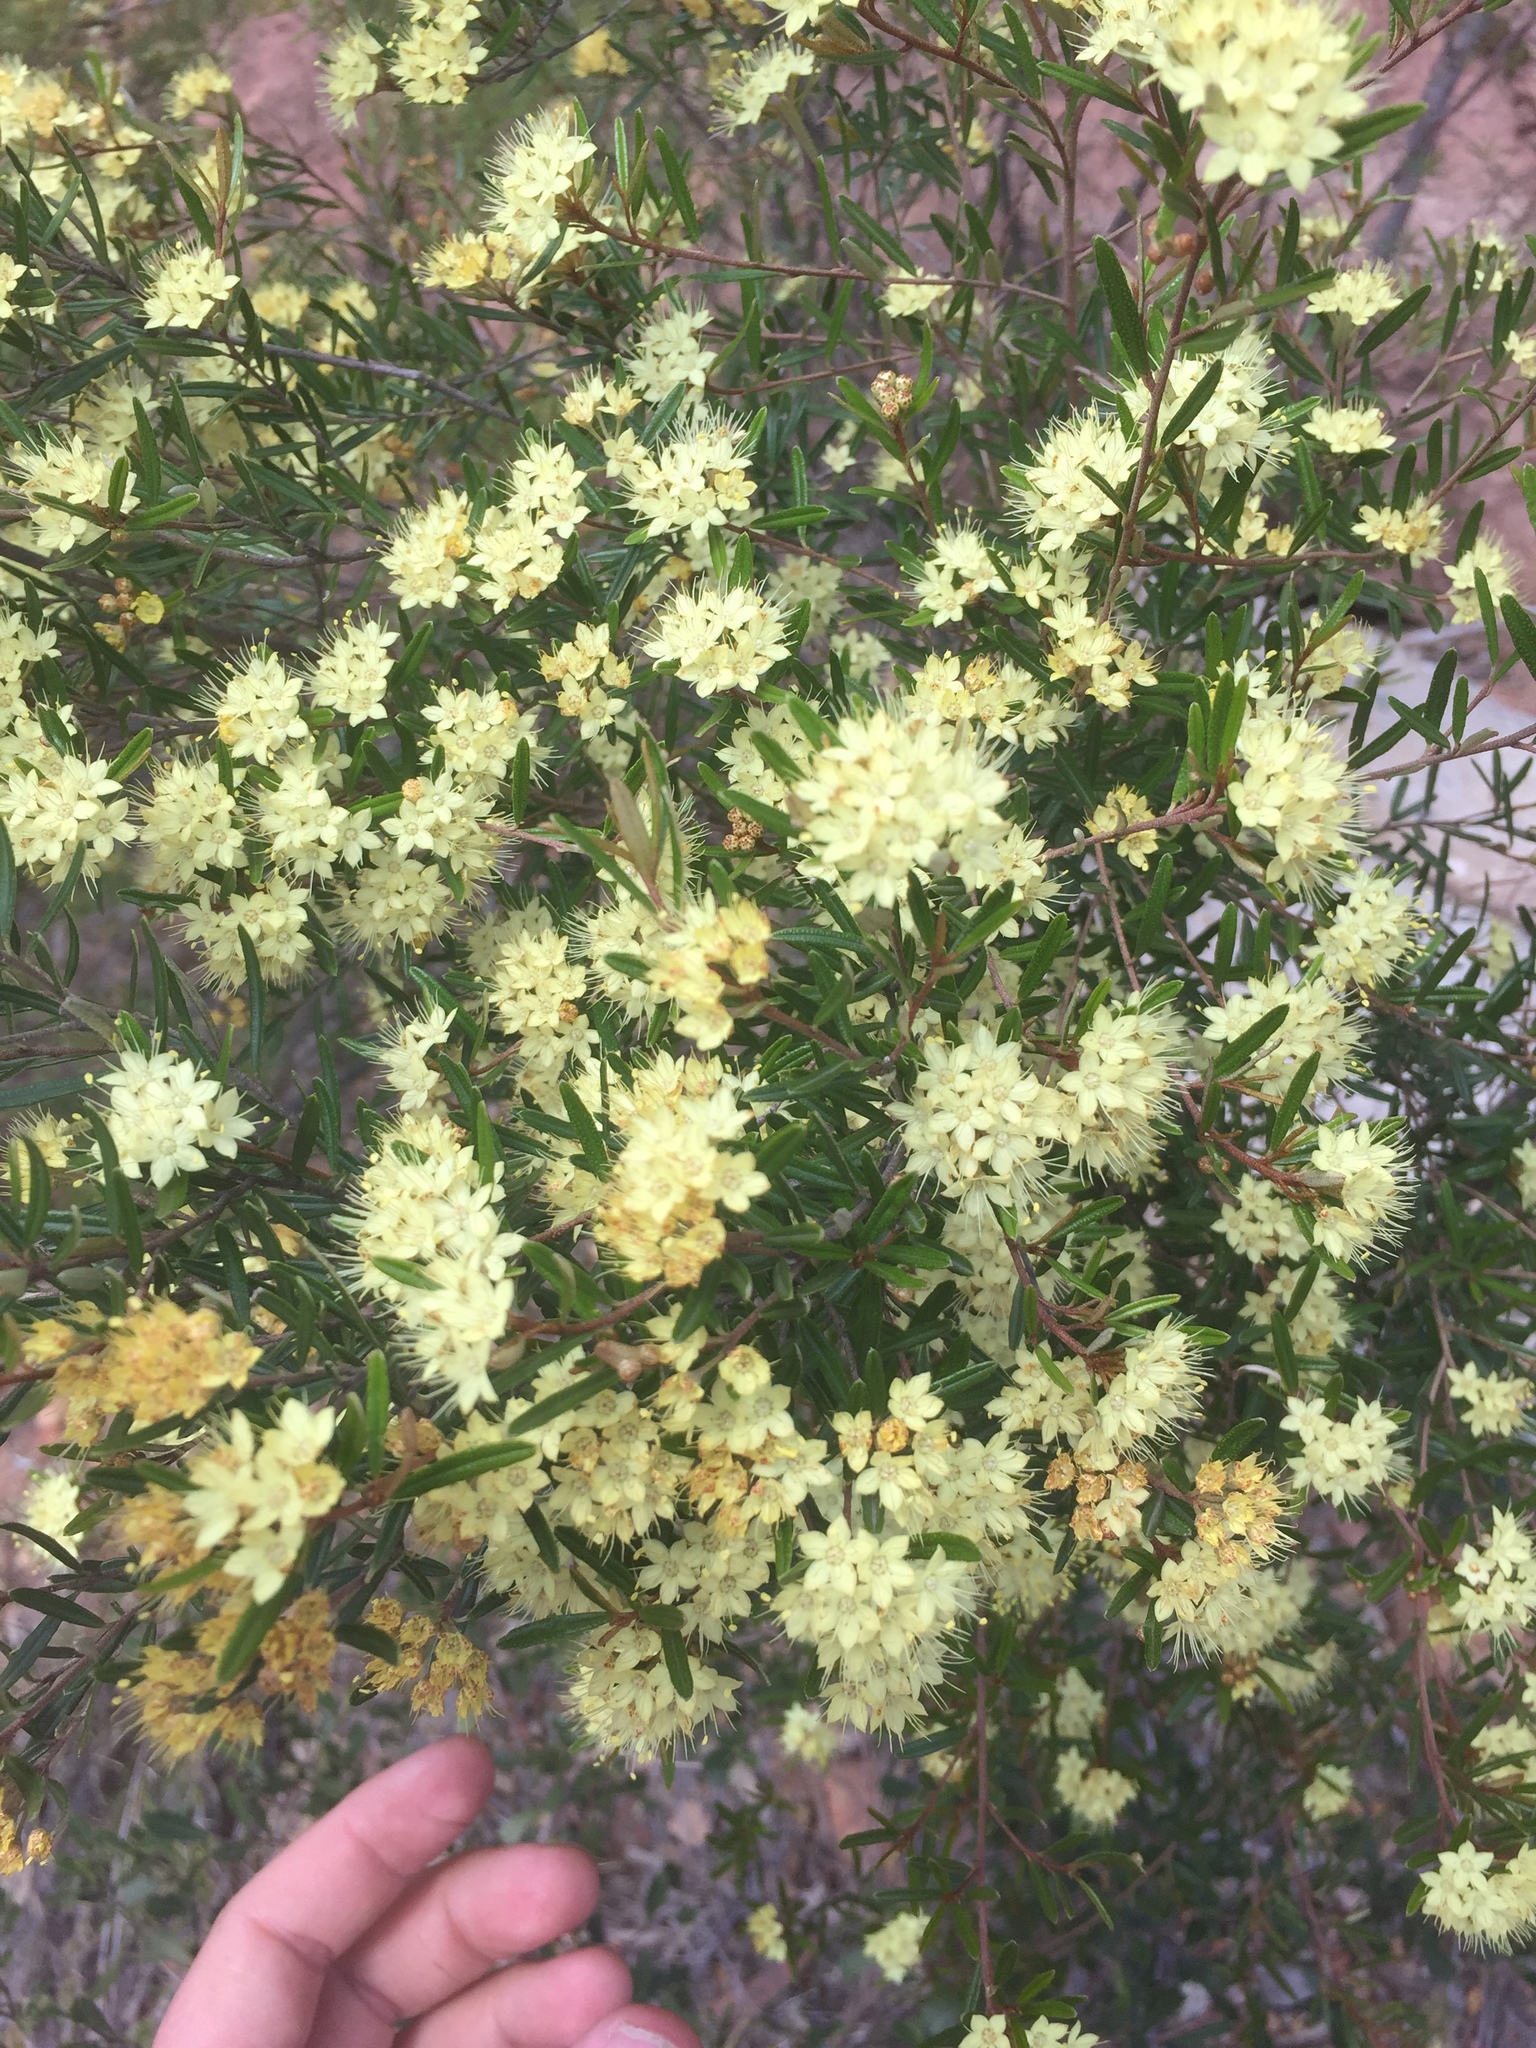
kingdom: Plantae
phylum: Tracheophyta
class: Magnoliopsida
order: Sapindales
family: Rutaceae
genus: Phebalium
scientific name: Phebalium squamulosum
